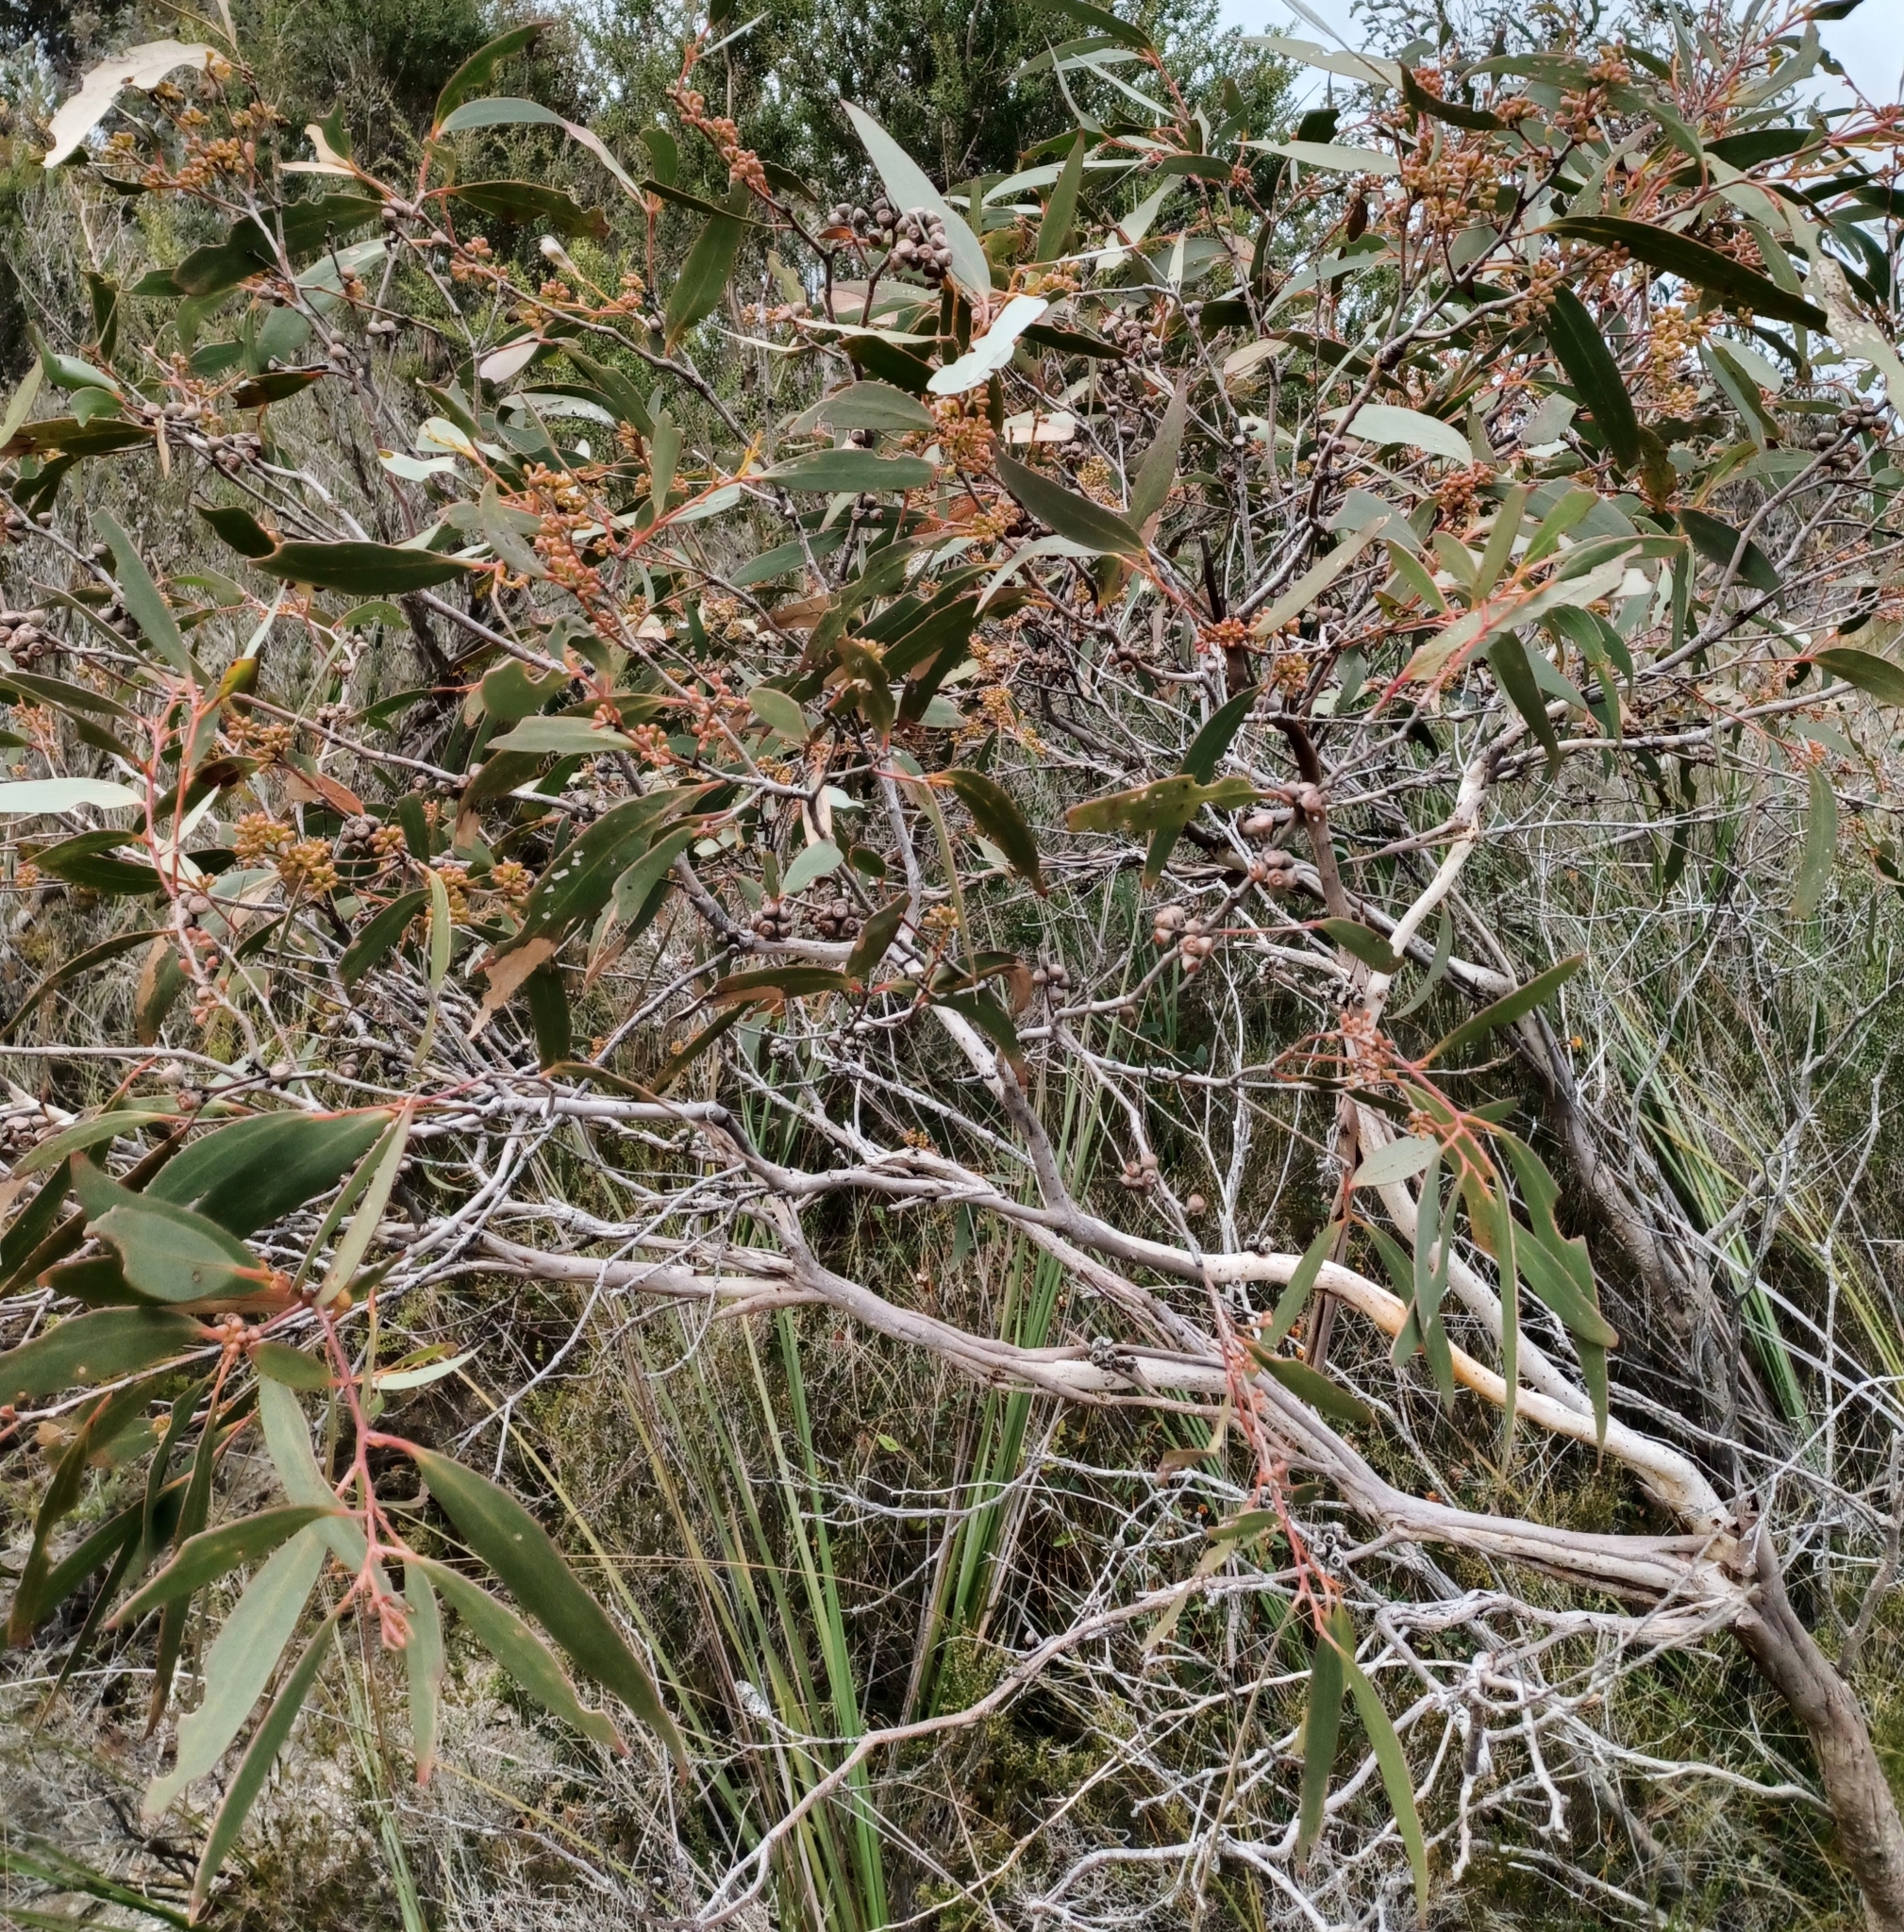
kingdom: Plantae
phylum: Tracheophyta
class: Magnoliopsida
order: Myrtales
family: Myrtaceae
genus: Eucalyptus
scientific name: Eucalyptus falciformis
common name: Grampians peppermint
